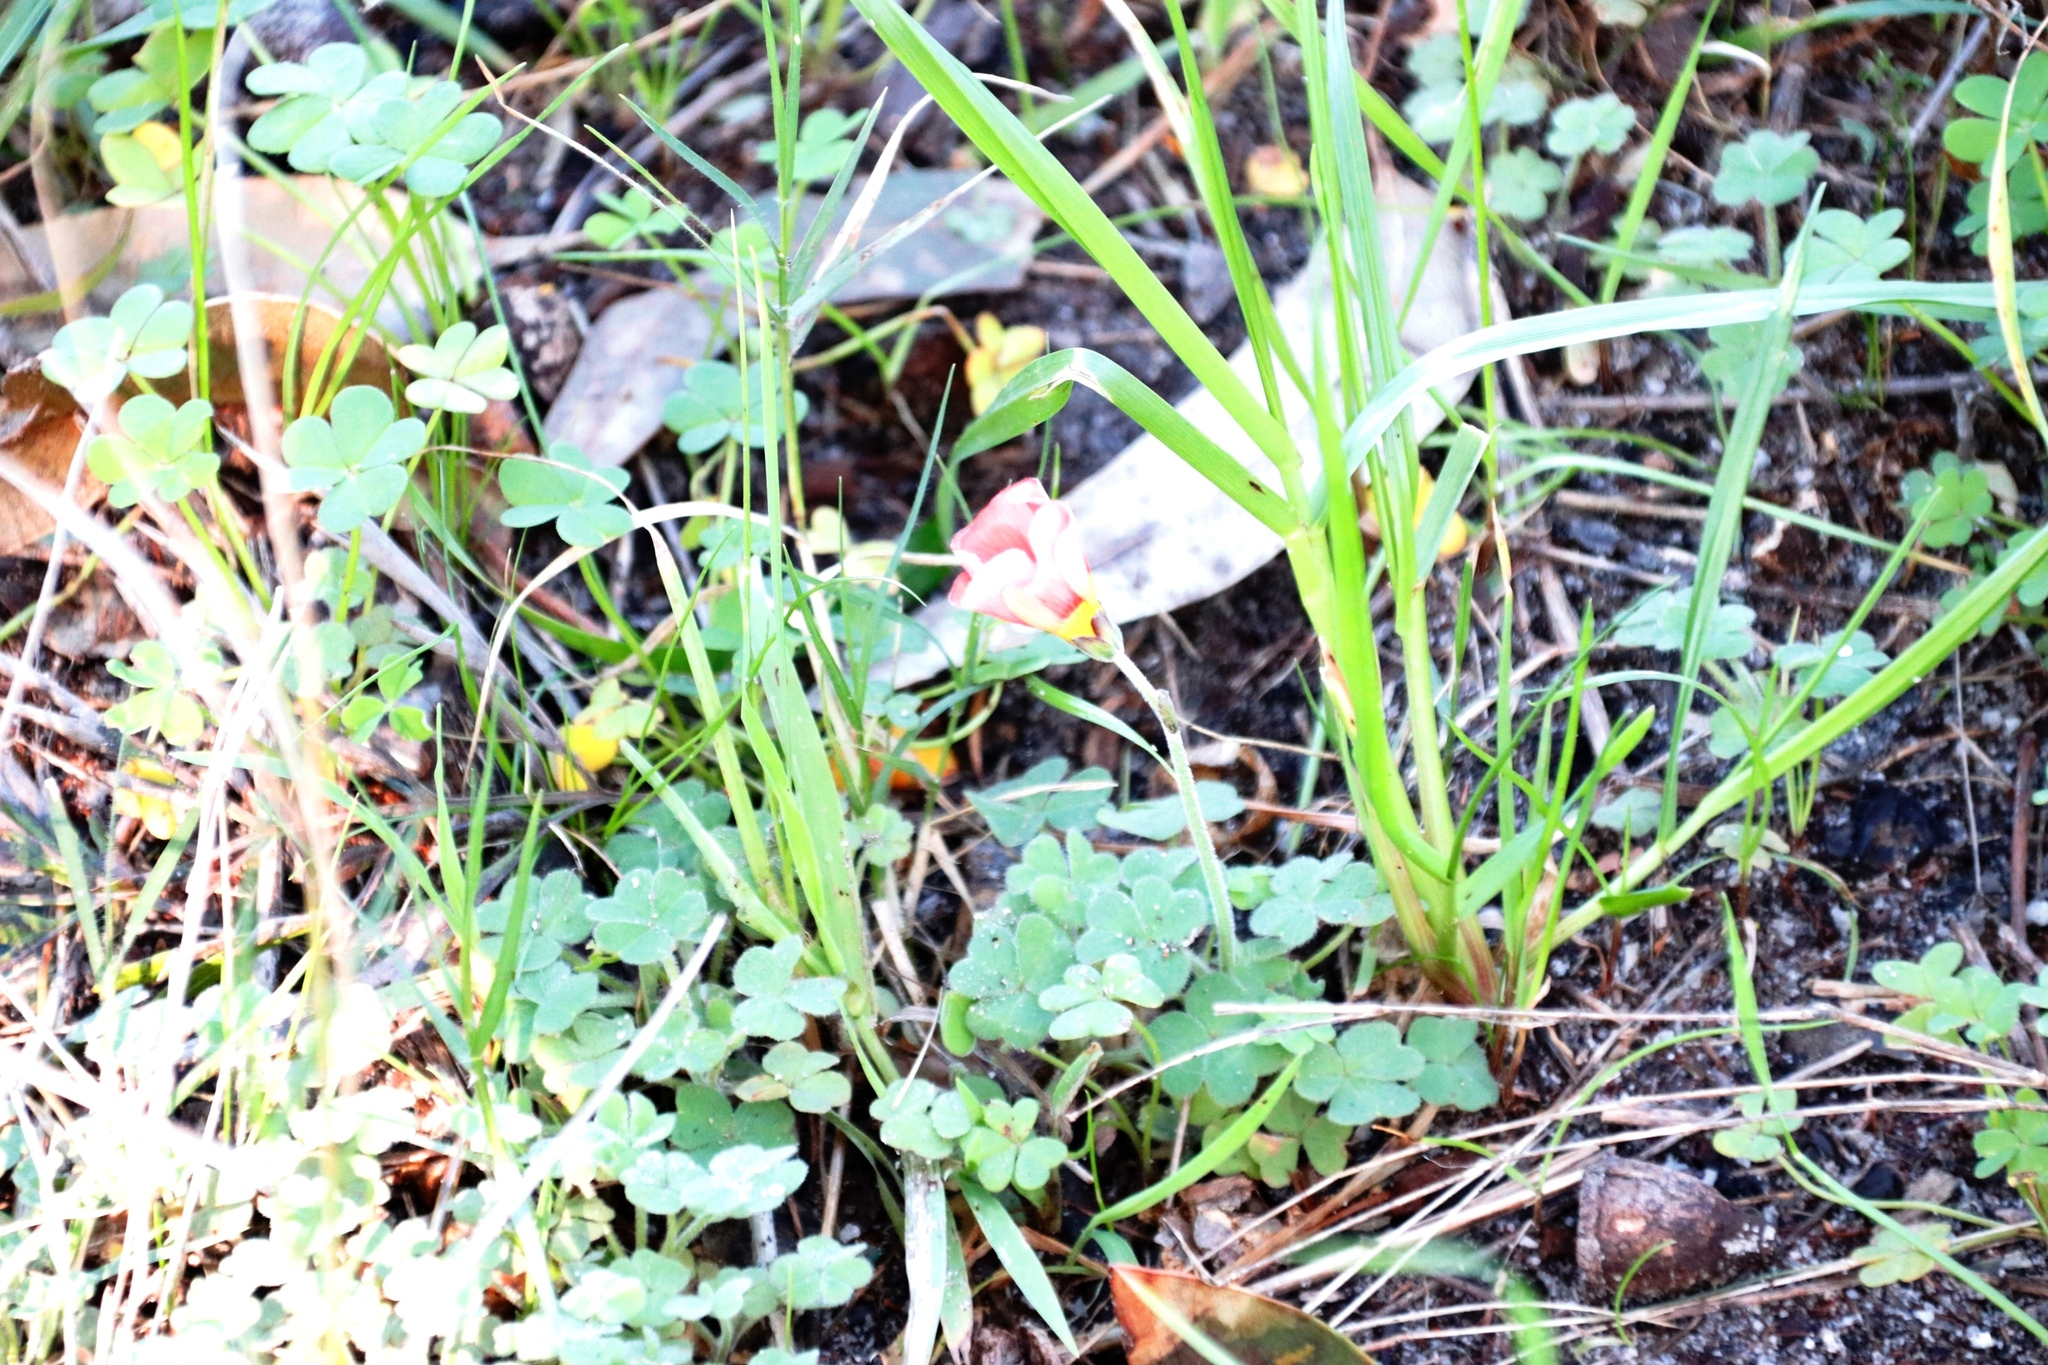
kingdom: Plantae
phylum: Tracheophyta
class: Magnoliopsida
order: Oxalidales
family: Oxalidaceae
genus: Oxalis
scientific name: Oxalis obtusa
